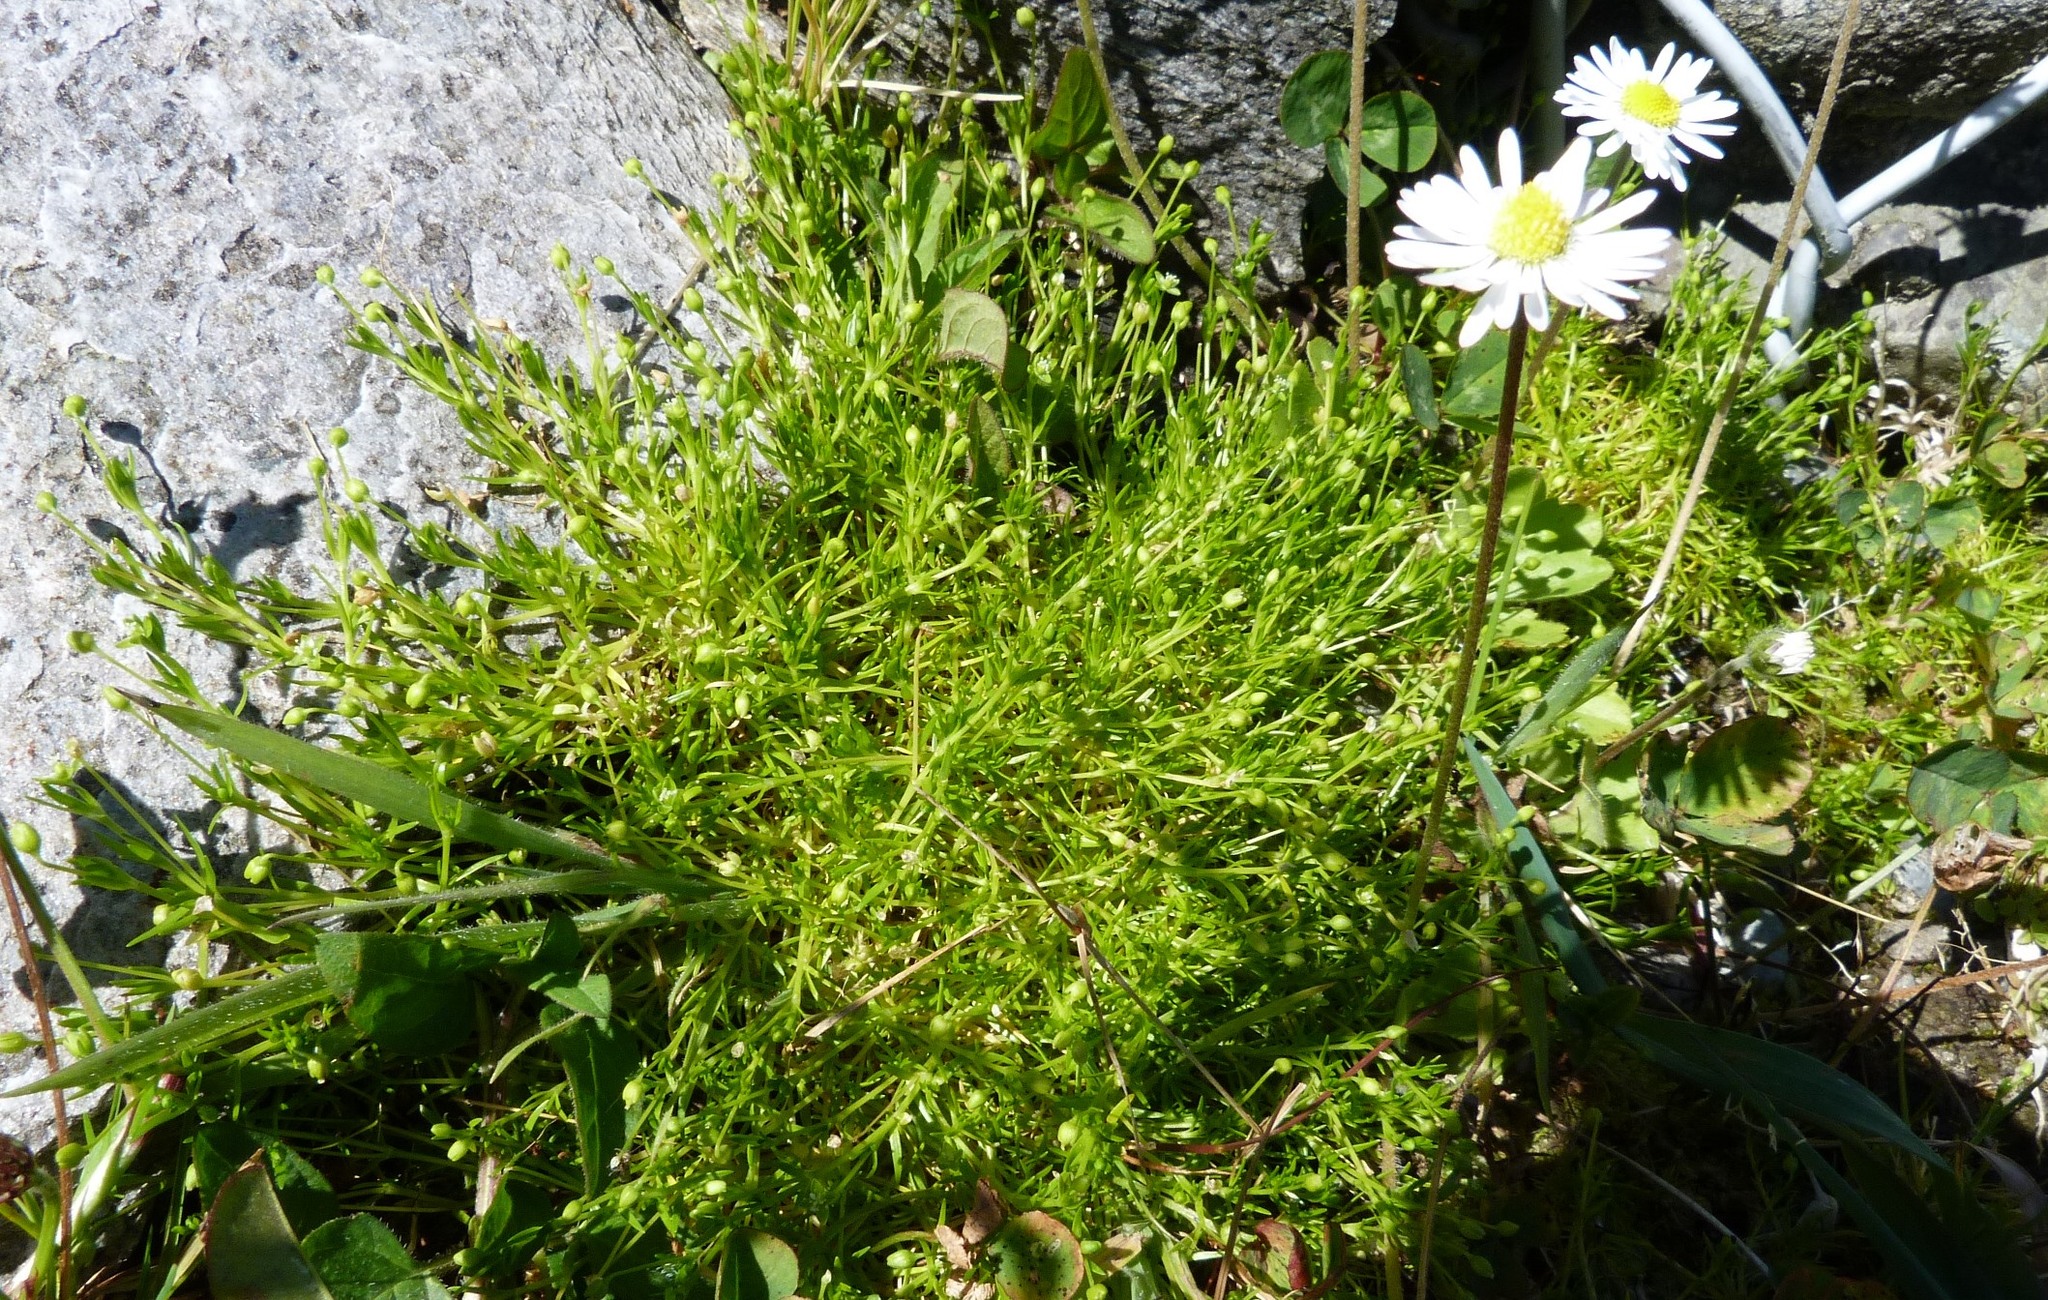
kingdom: Plantae
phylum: Tracheophyta
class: Magnoliopsida
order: Caryophyllales
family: Caryophyllaceae
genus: Sagina
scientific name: Sagina procumbens
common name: Procumbent pearlwort
